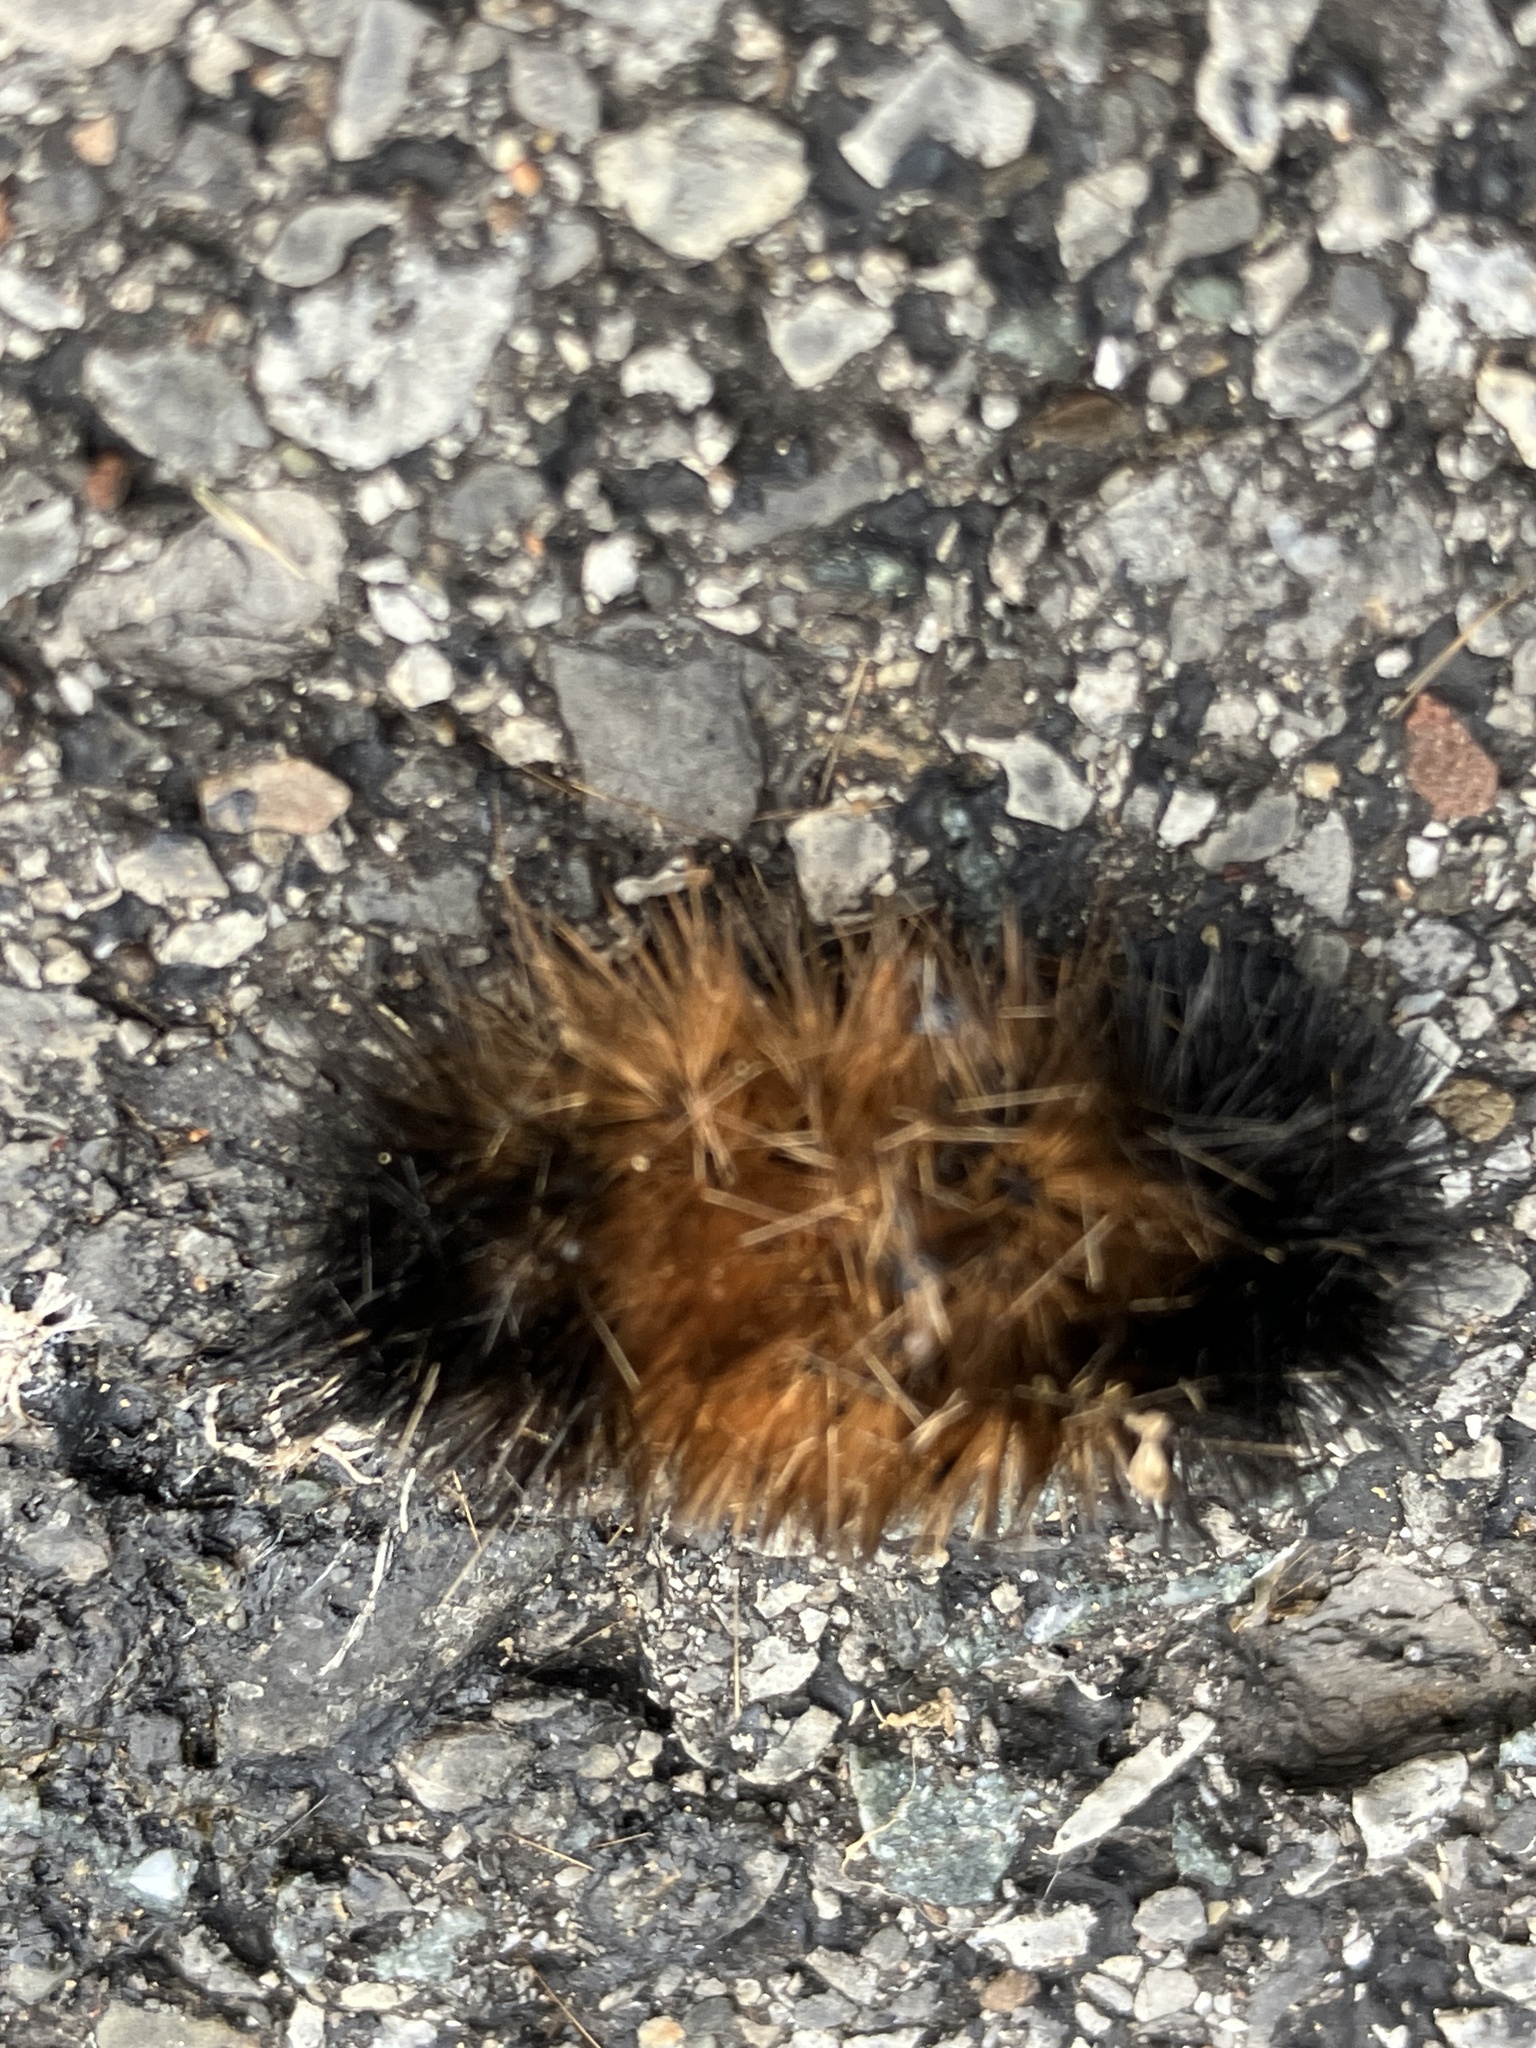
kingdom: Animalia
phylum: Arthropoda
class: Insecta
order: Lepidoptera
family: Erebidae
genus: Pyrrharctia
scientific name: Pyrrharctia isabella
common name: Isabella tiger moth
